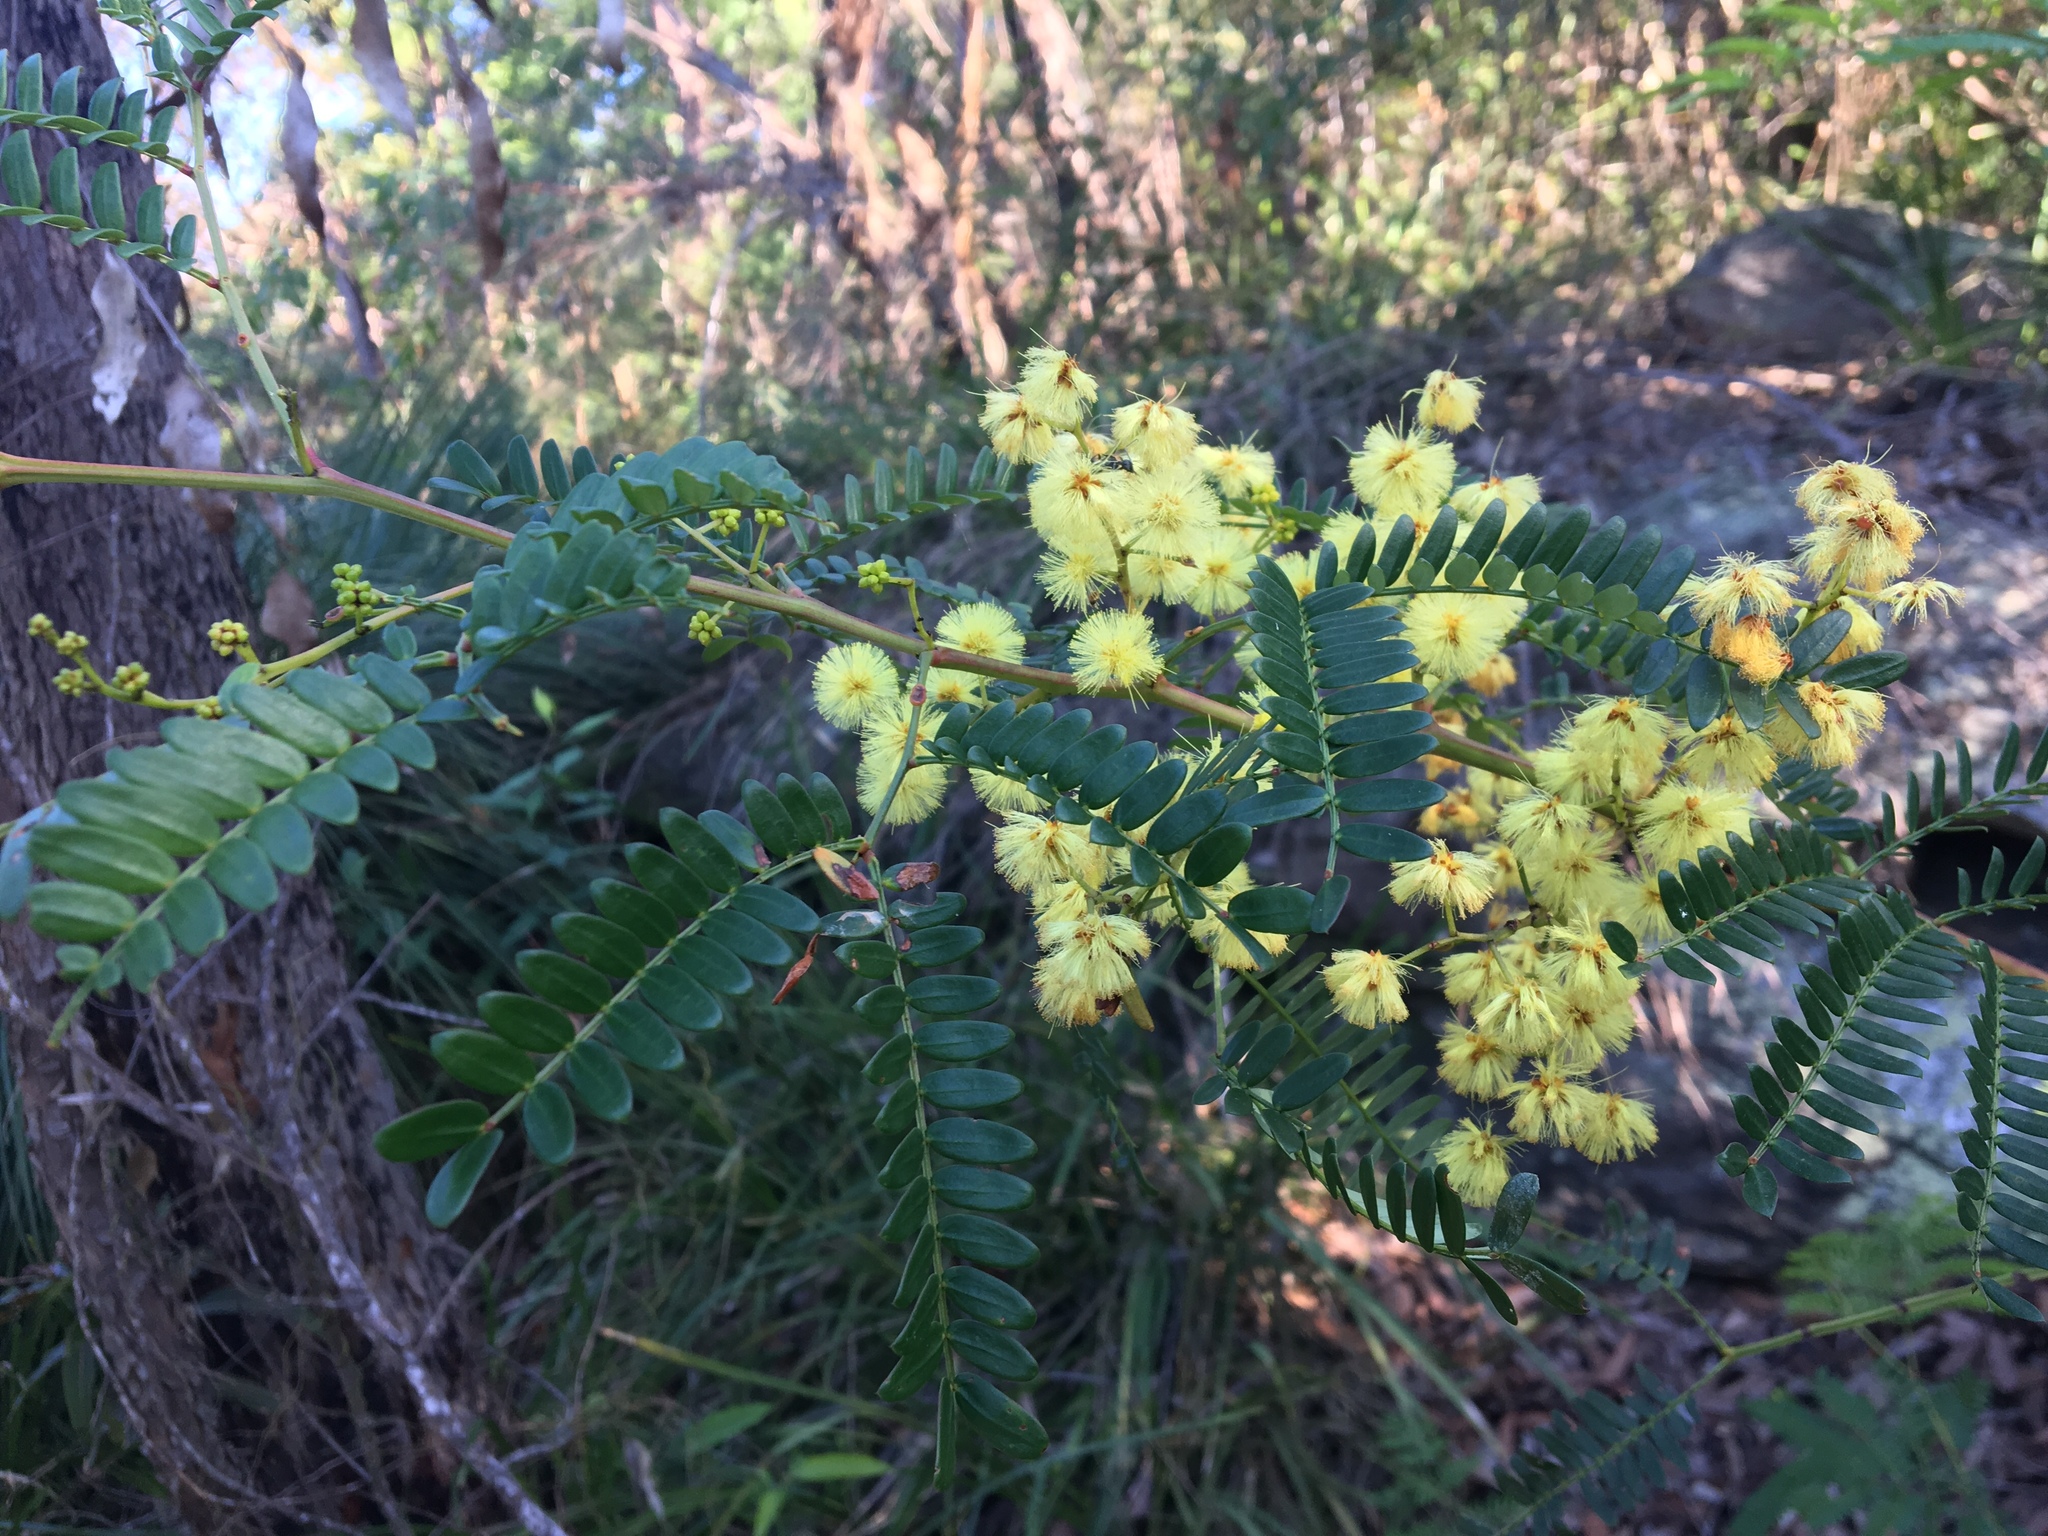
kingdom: Plantae
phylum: Tracheophyta
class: Magnoliopsida
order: Fabales
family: Fabaceae
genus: Acacia
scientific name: Acacia terminalis
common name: Cedar wattle
